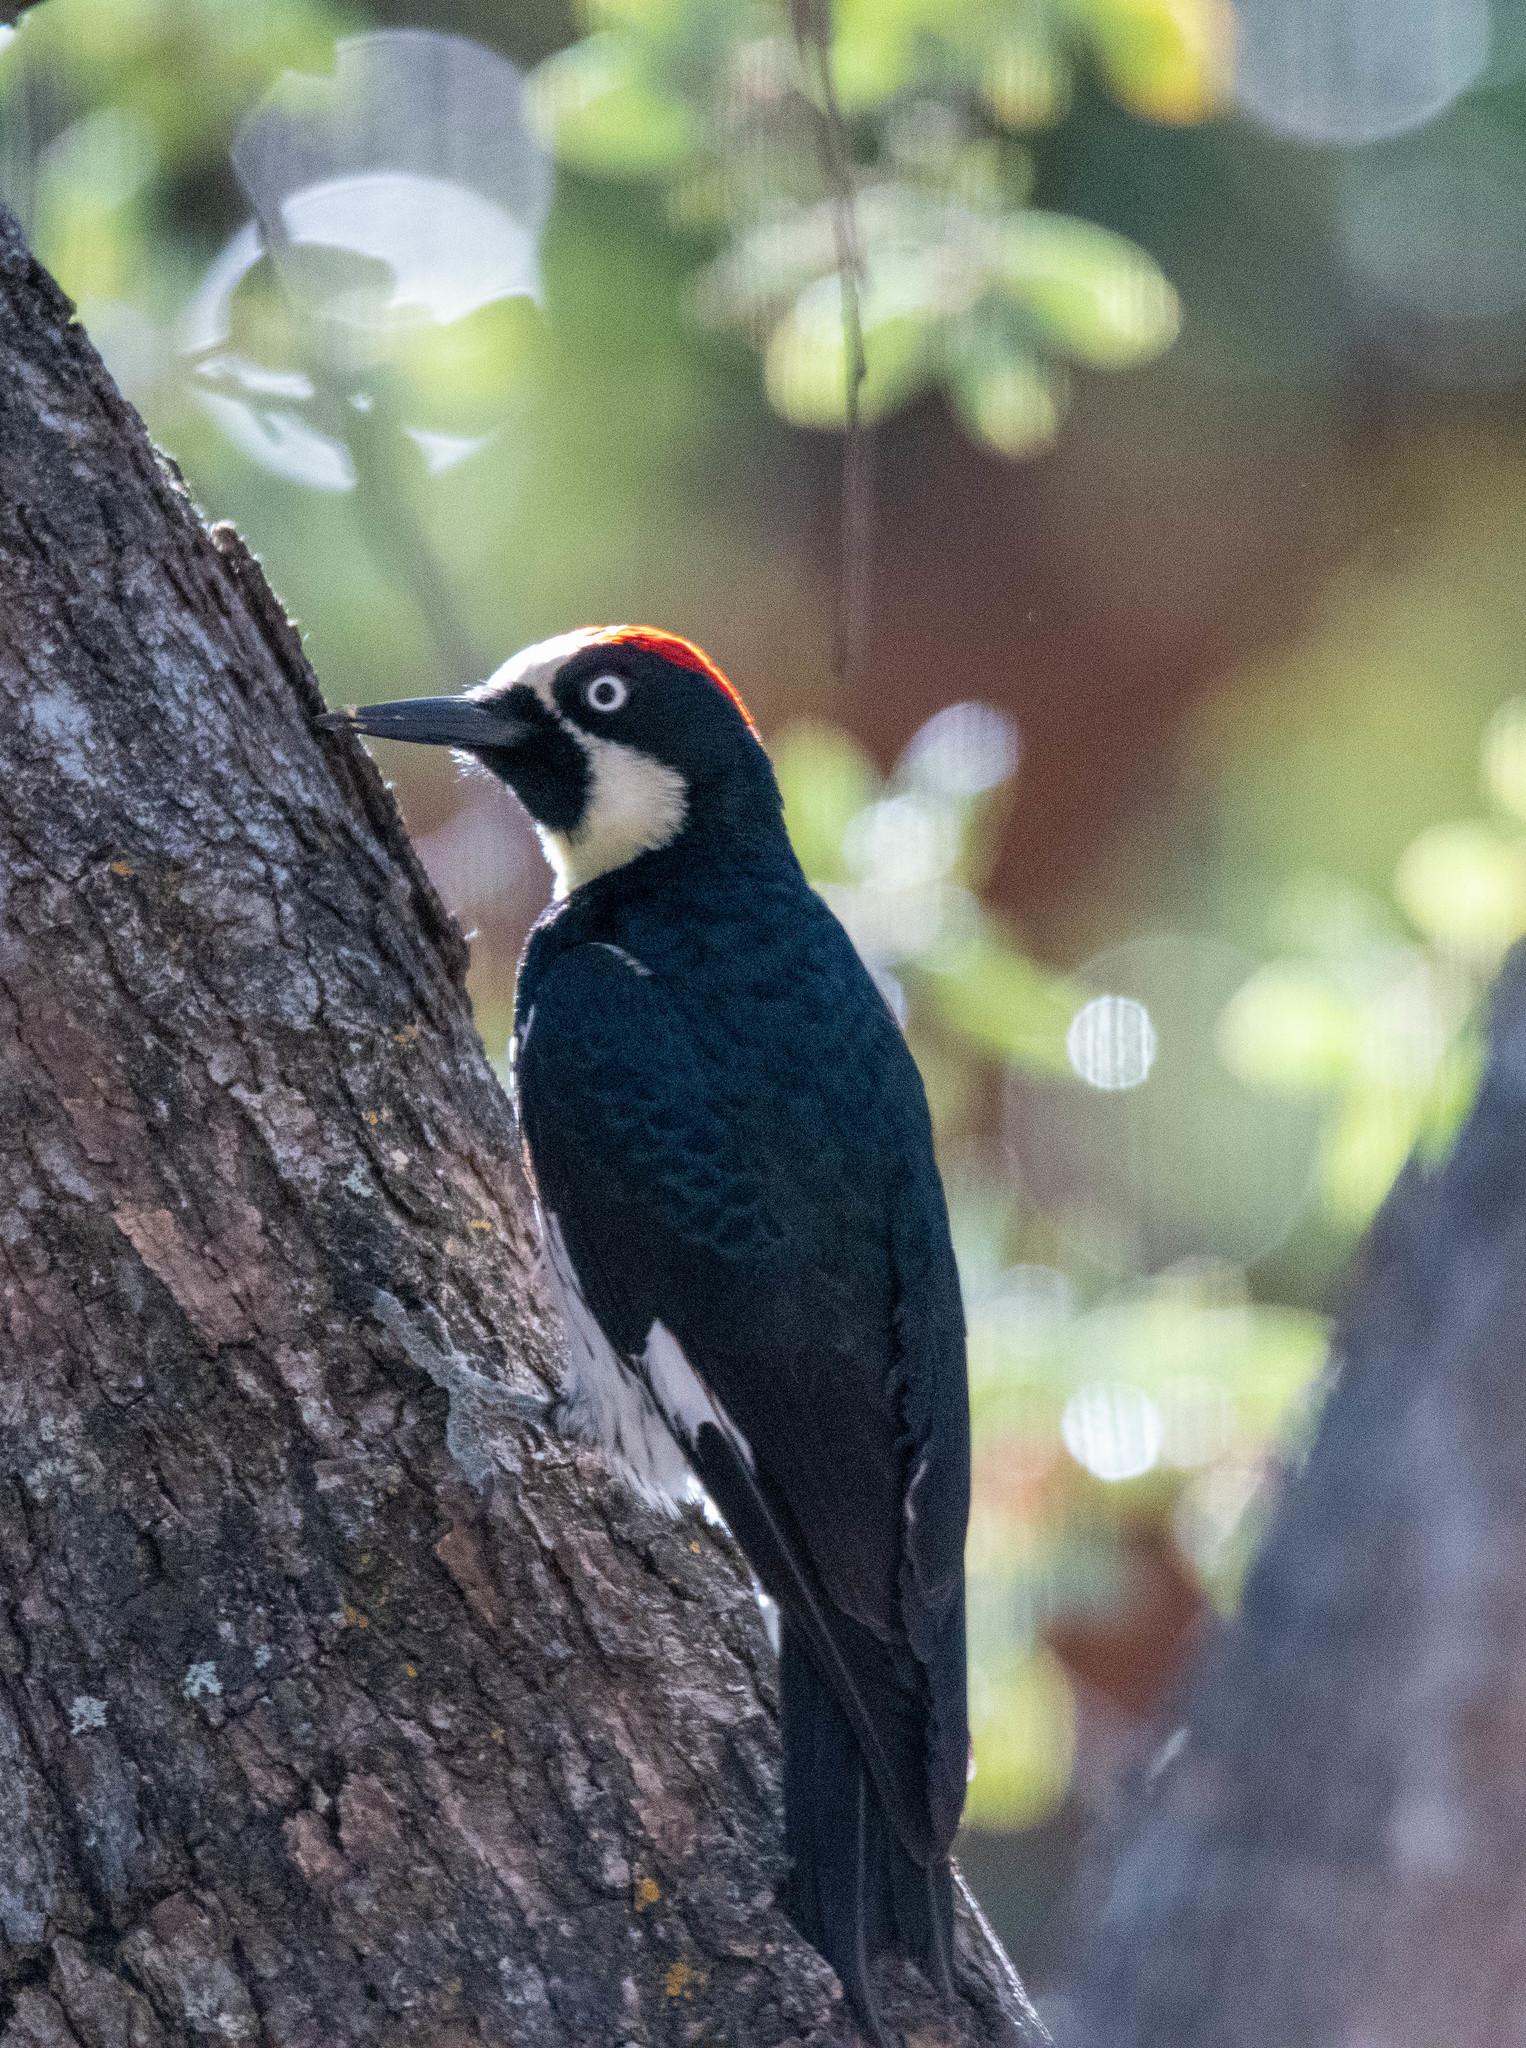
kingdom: Animalia
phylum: Chordata
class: Aves
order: Piciformes
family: Picidae
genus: Melanerpes
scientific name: Melanerpes formicivorus
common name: Acorn woodpecker
